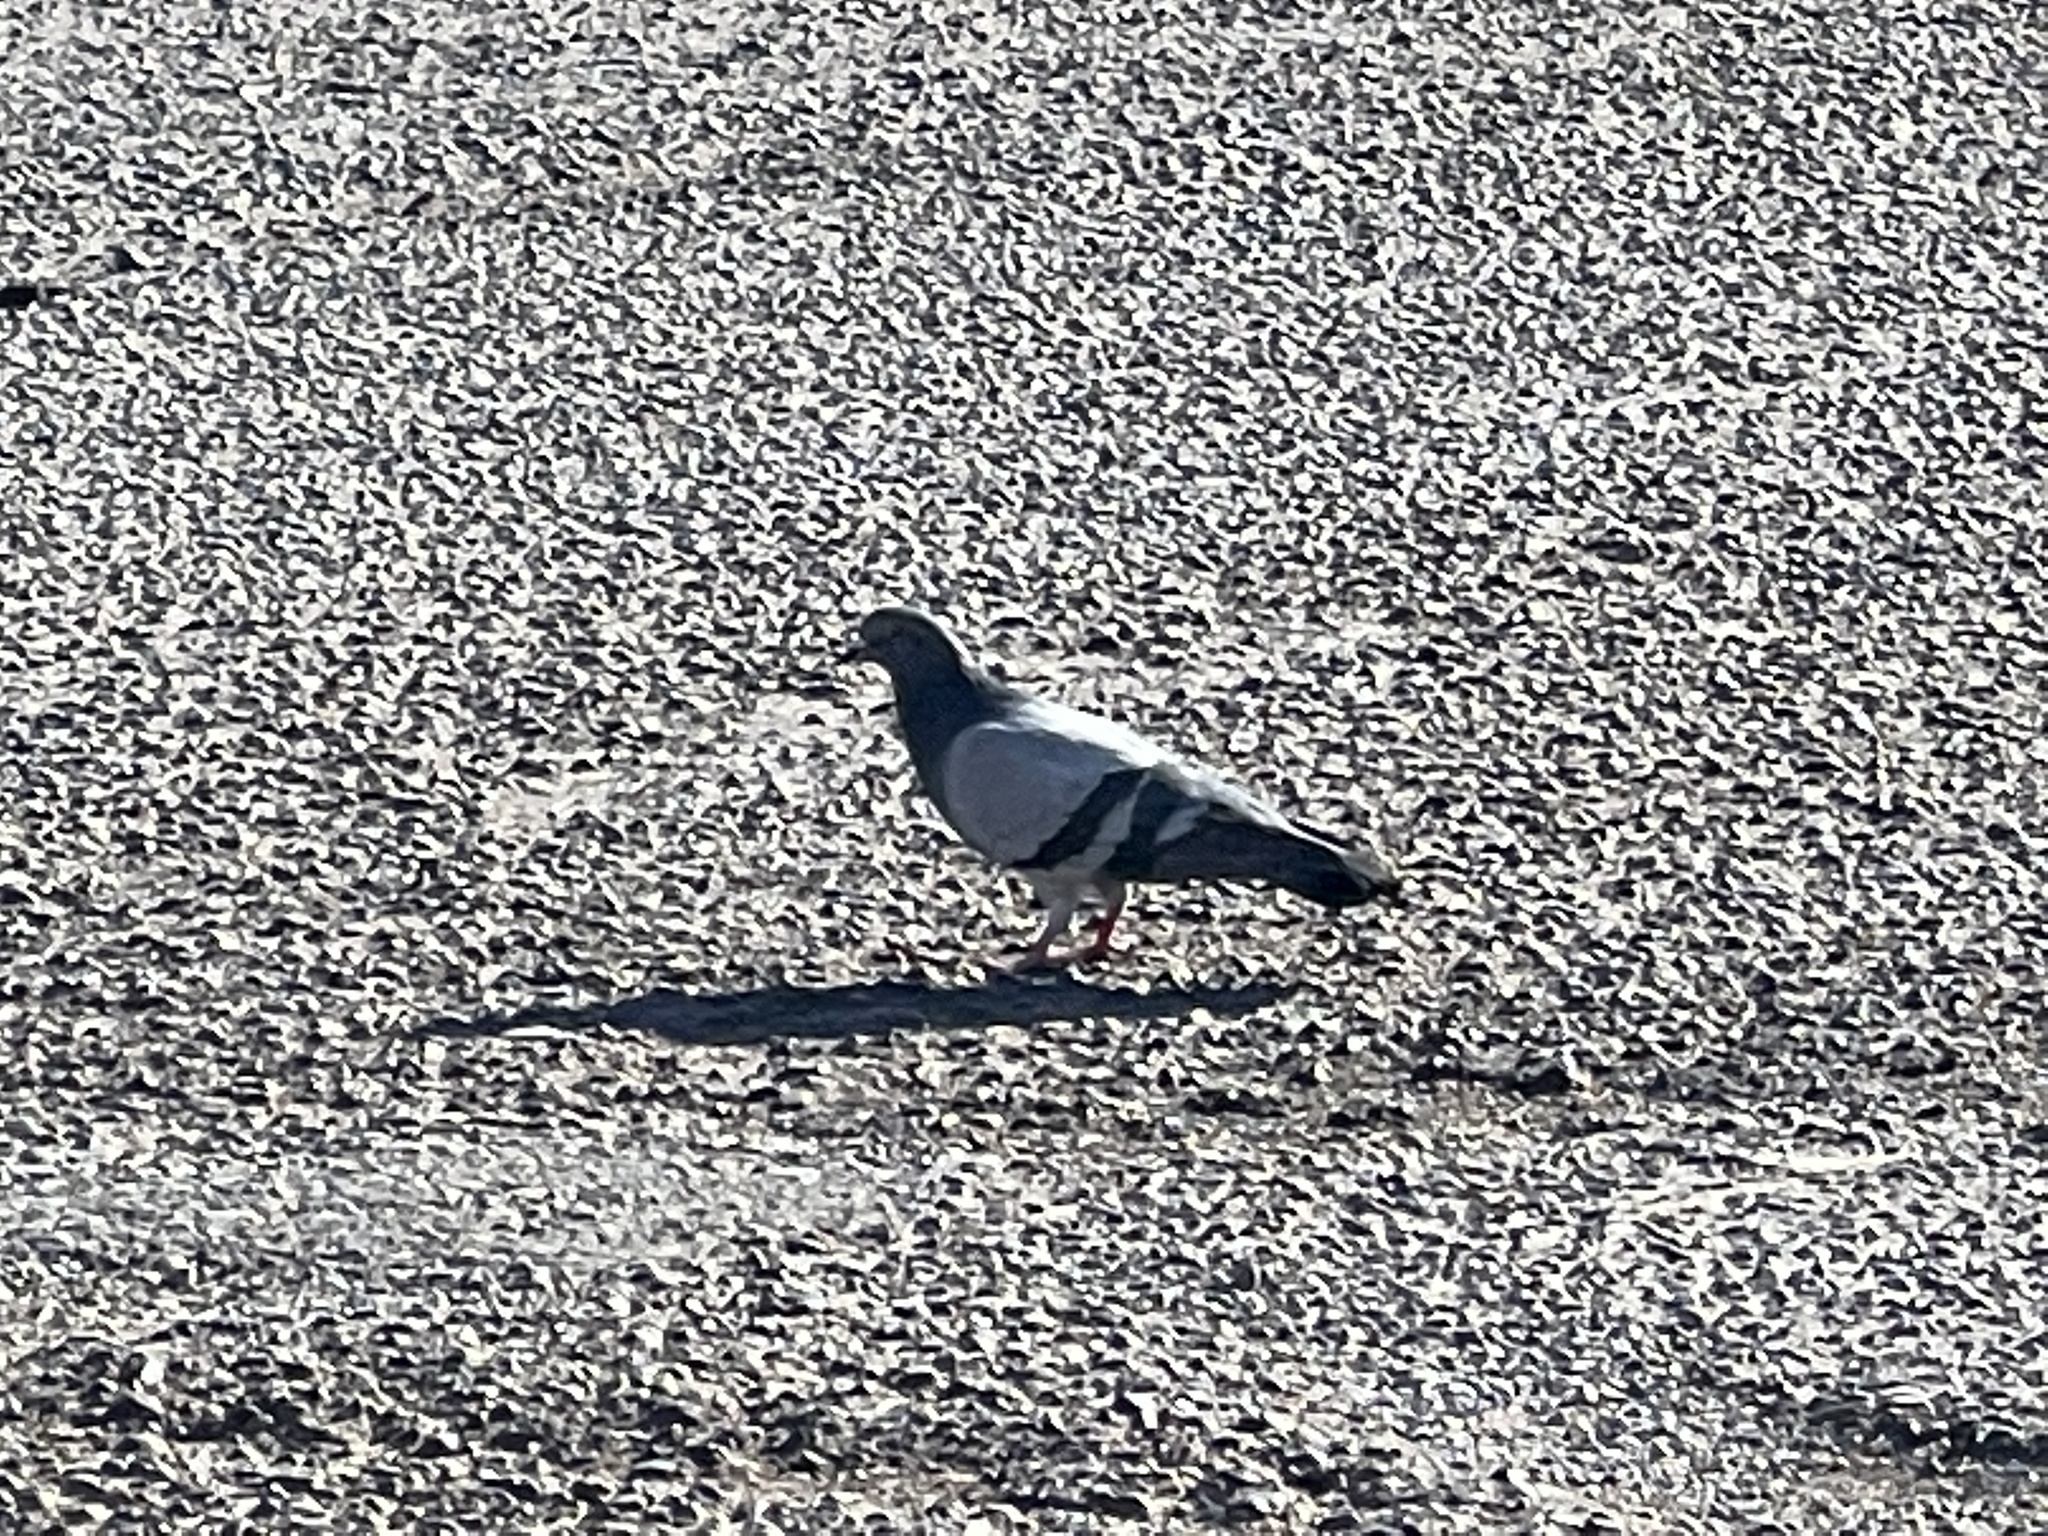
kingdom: Animalia
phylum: Chordata
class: Aves
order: Columbiformes
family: Columbidae
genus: Columba
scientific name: Columba livia
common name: Rock pigeon
